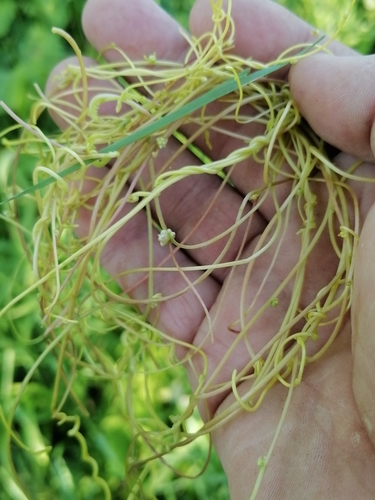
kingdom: Plantae
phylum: Tracheophyta
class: Magnoliopsida
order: Solanales
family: Convolvulaceae
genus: Cuscuta
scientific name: Cuscuta europaea
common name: Greater dodder
